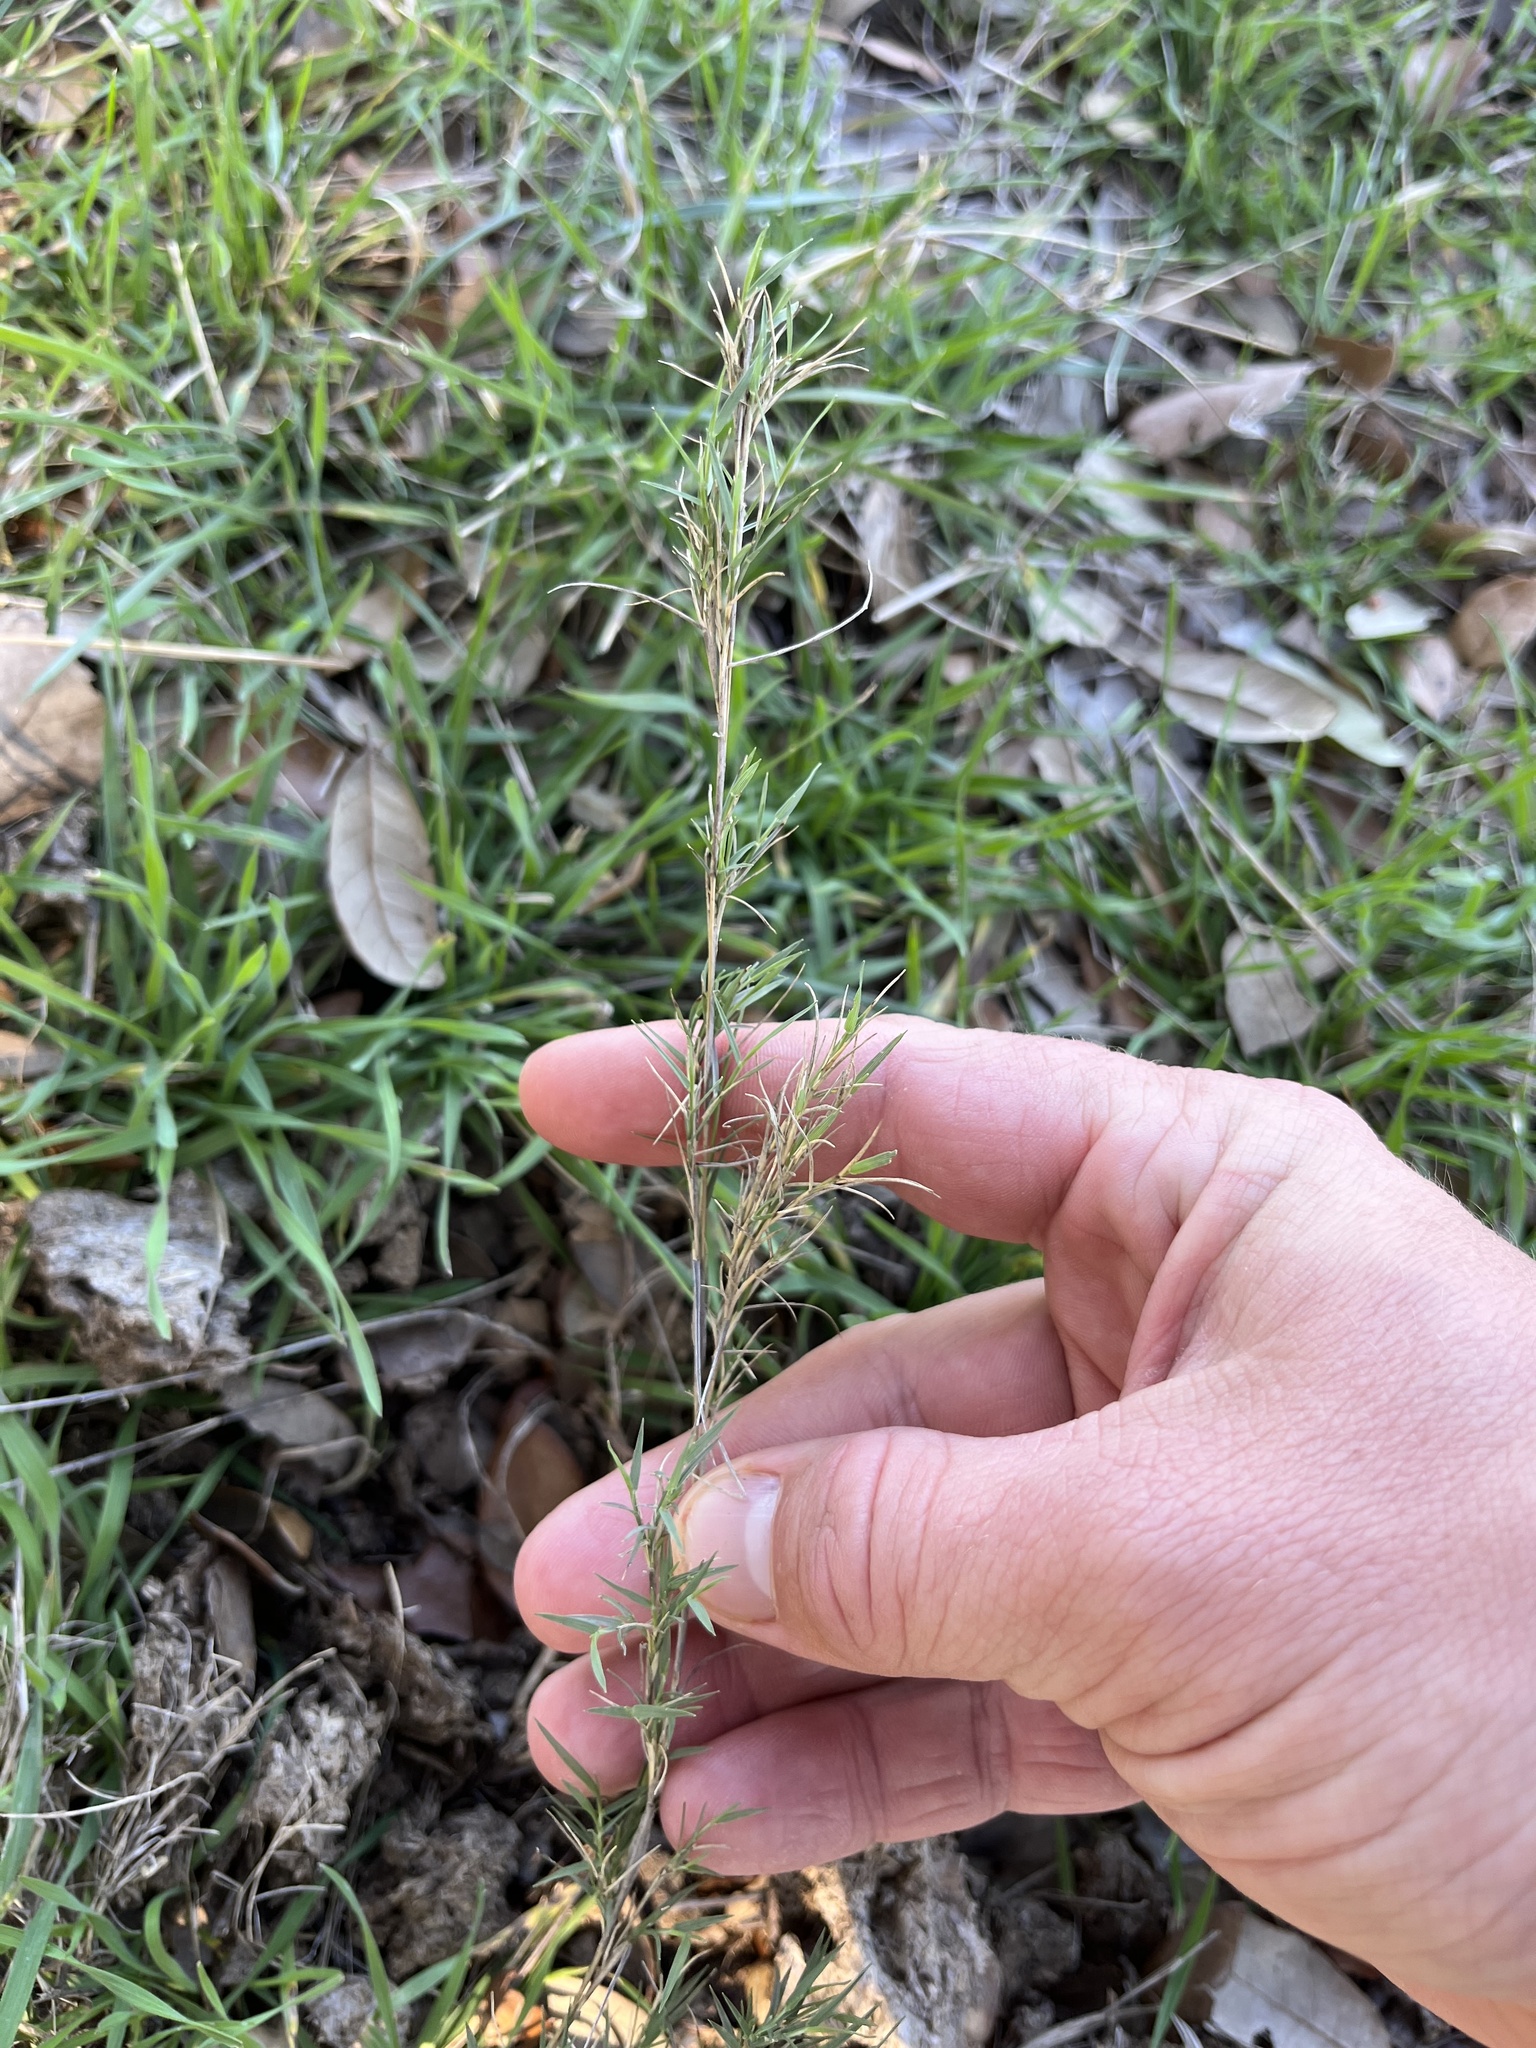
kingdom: Plantae
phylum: Tracheophyta
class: Liliopsida
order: Poales
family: Poaceae
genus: Muhlenbergia
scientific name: Muhlenbergia utilis
